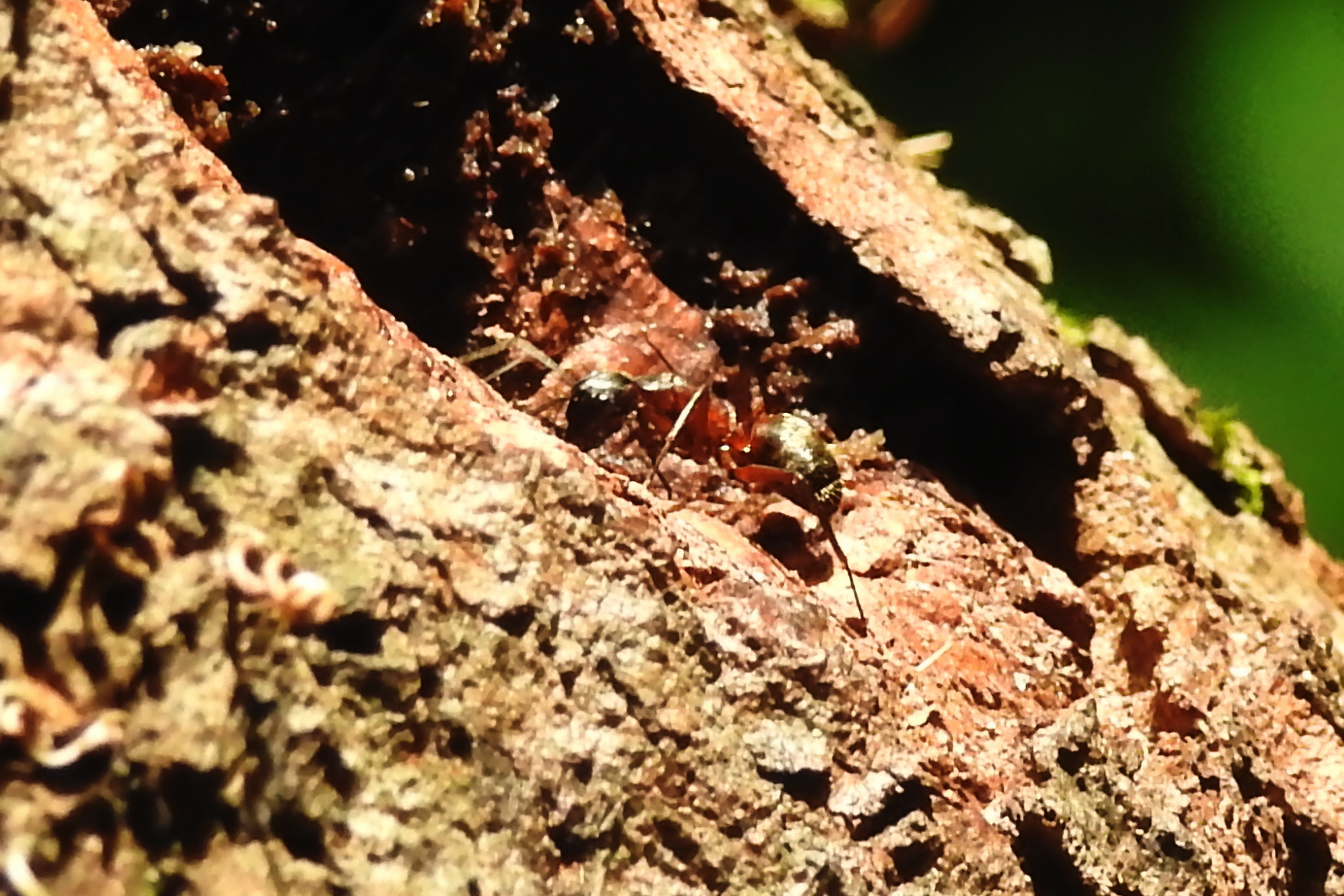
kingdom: Animalia
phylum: Arthropoda
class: Insecta
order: Hymenoptera
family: Formicidae
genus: Camponotus
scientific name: Camponotus chromaiodes
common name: Red carpenter ant
